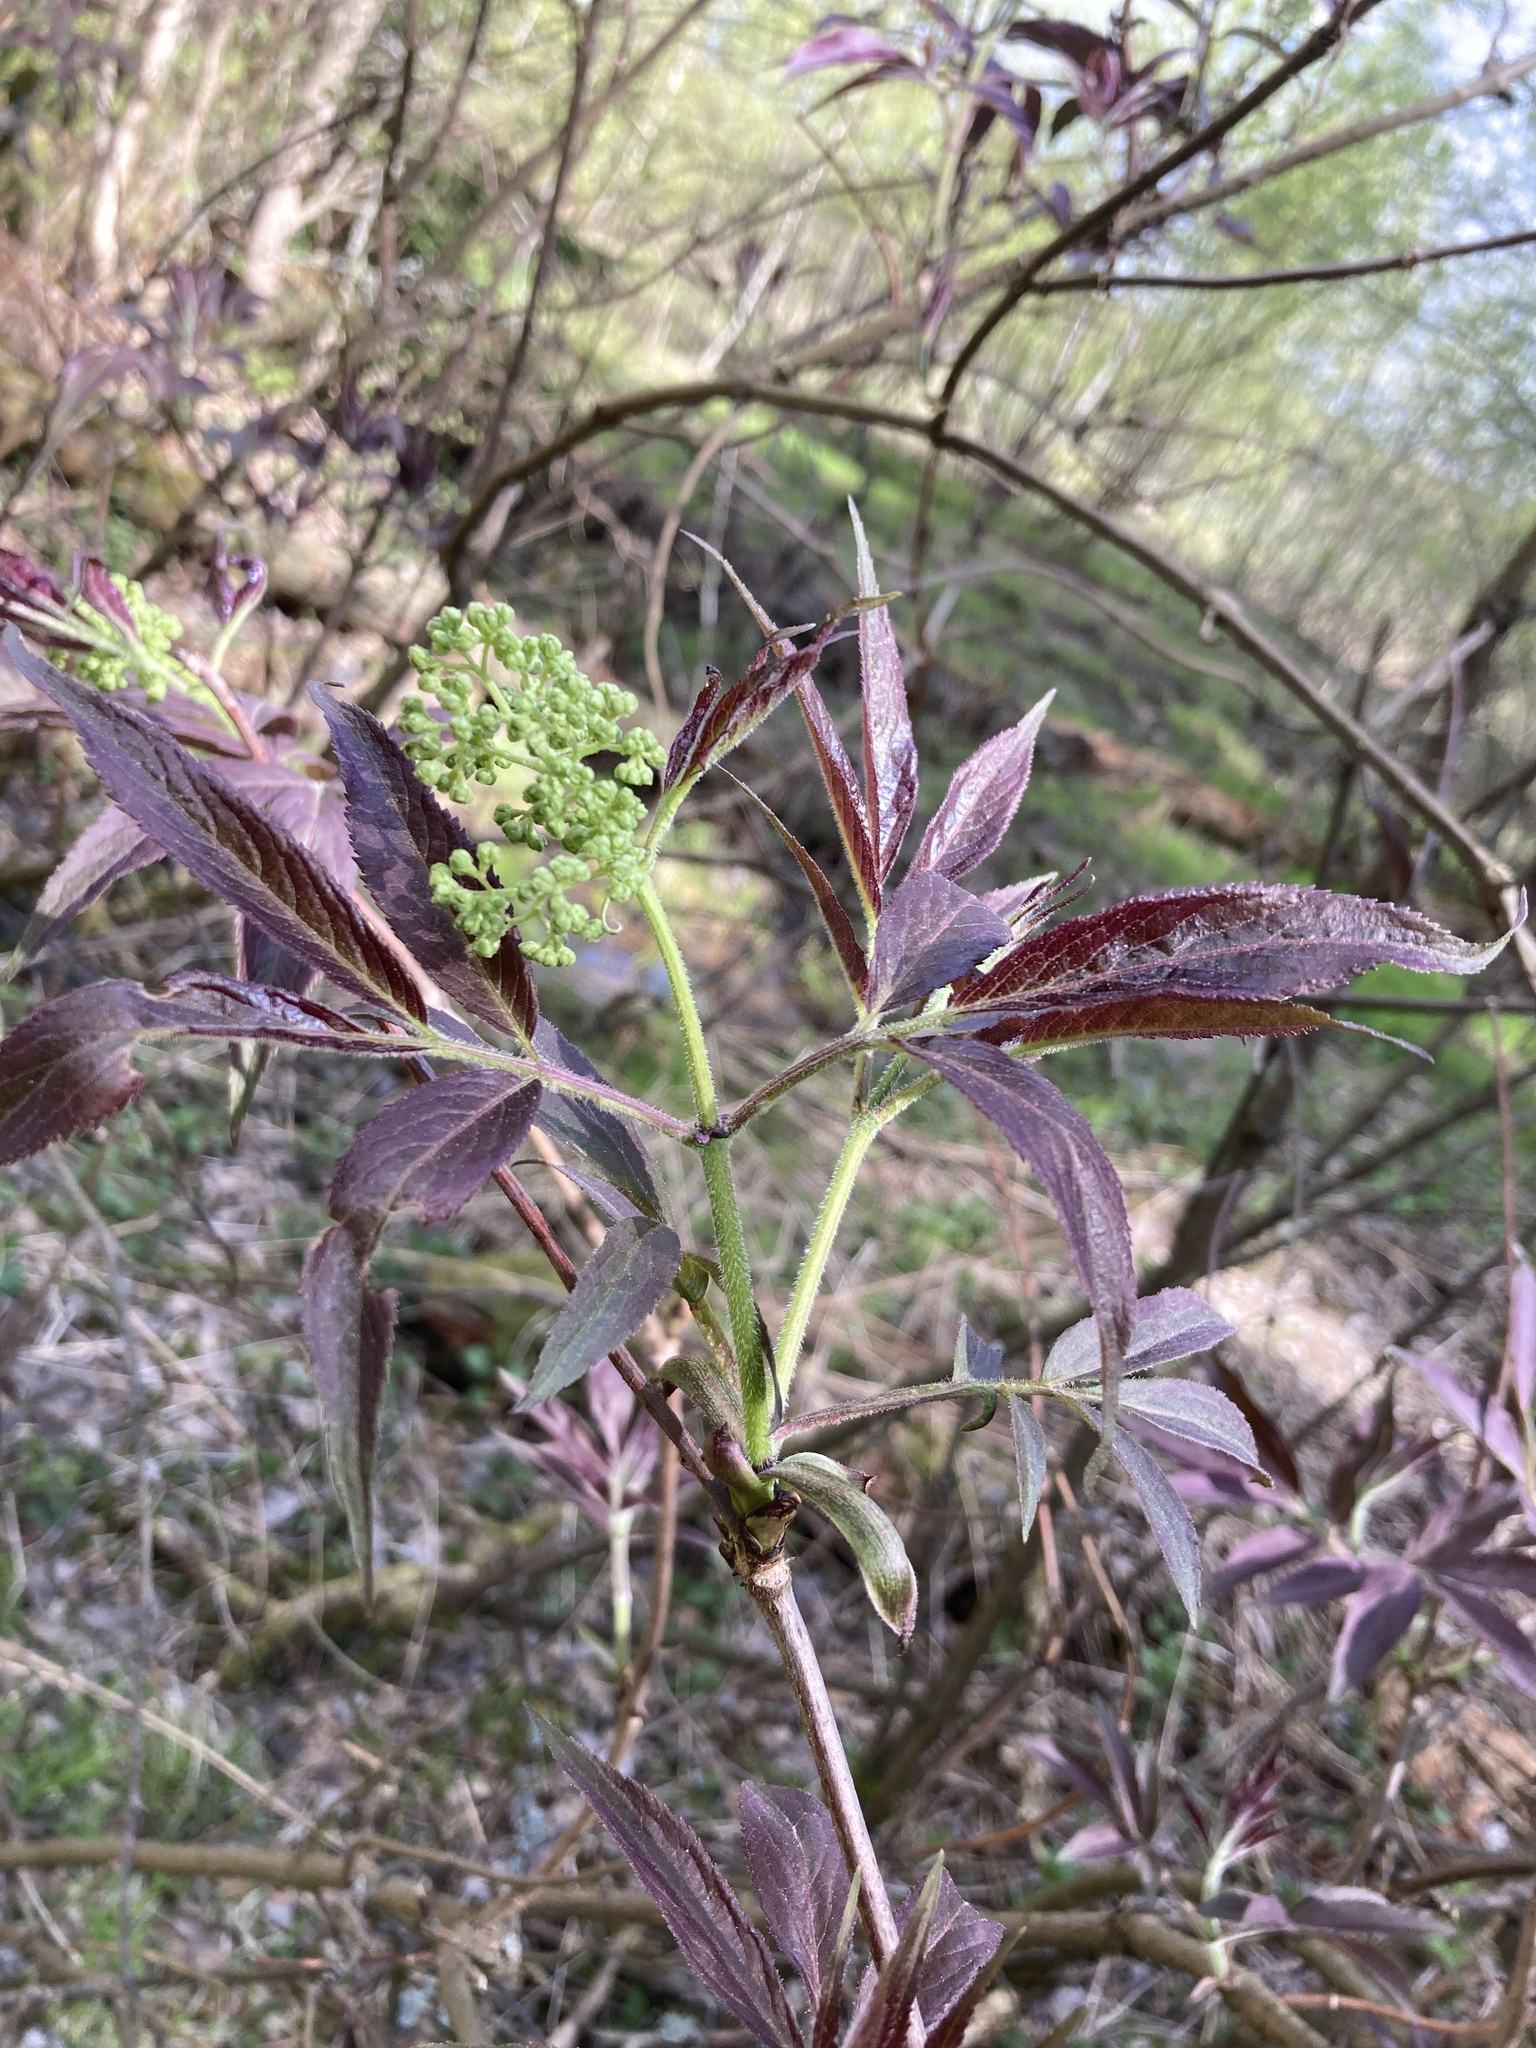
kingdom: Plantae
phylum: Tracheophyta
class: Magnoliopsida
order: Dipsacales
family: Viburnaceae
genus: Sambucus
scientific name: Sambucus racemosa
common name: Red-berried elder
